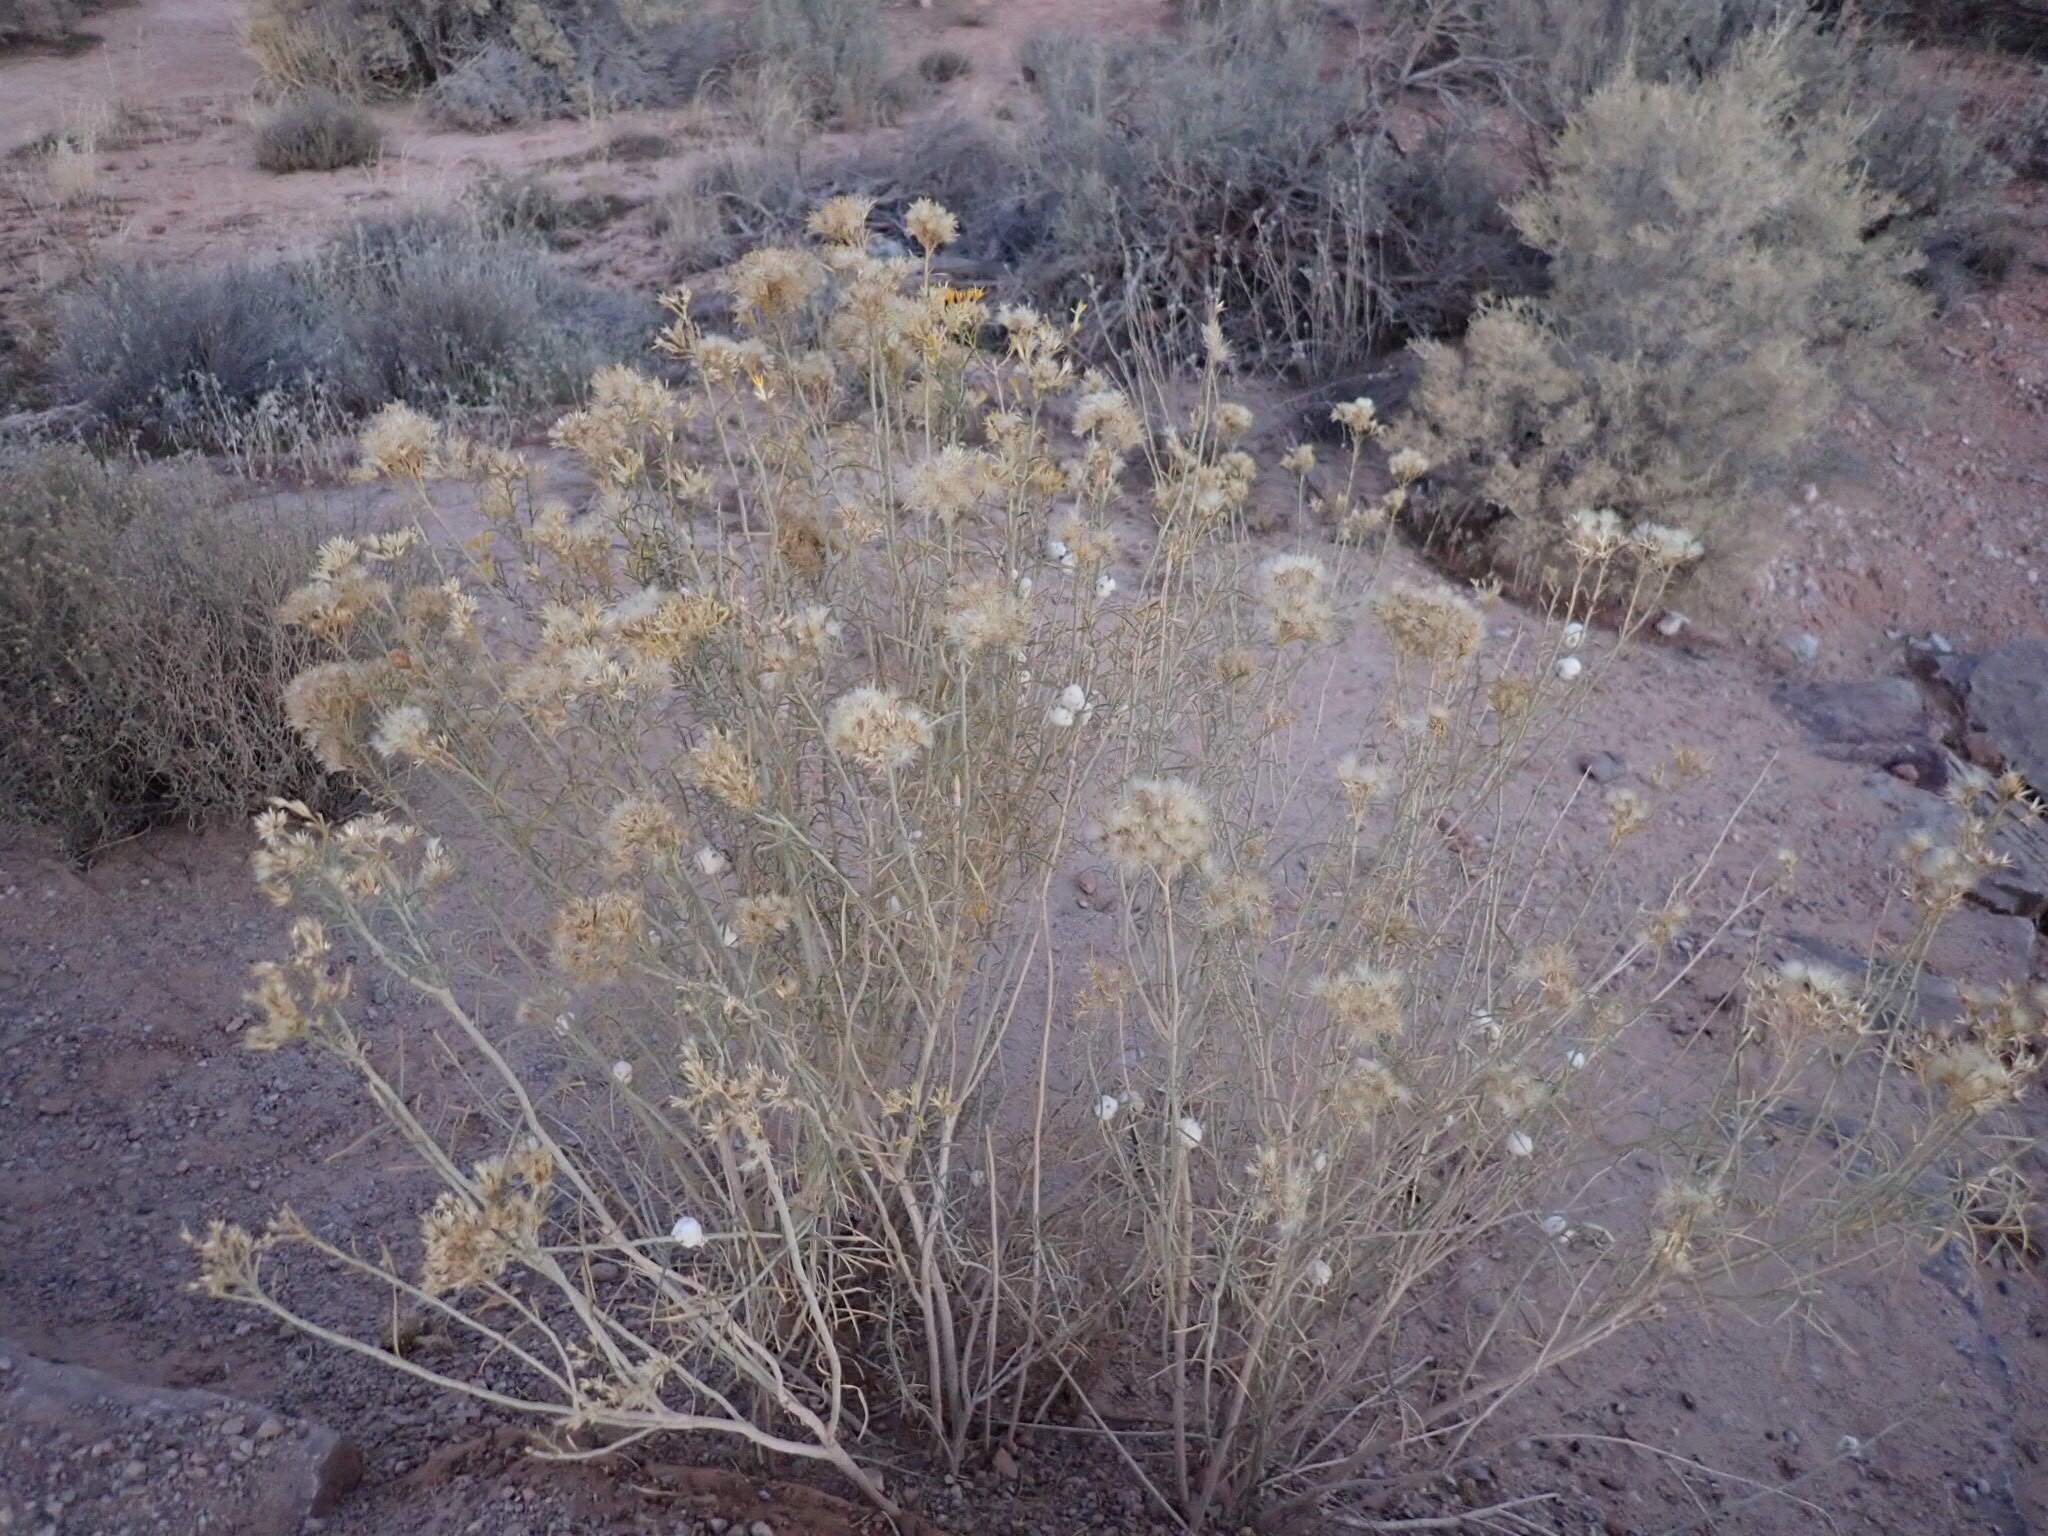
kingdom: Plantae
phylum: Tracheophyta
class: Magnoliopsida
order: Asterales
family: Asteraceae
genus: Ericameria
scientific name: Ericameria nauseosa
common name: Rubber rabbitbrush
